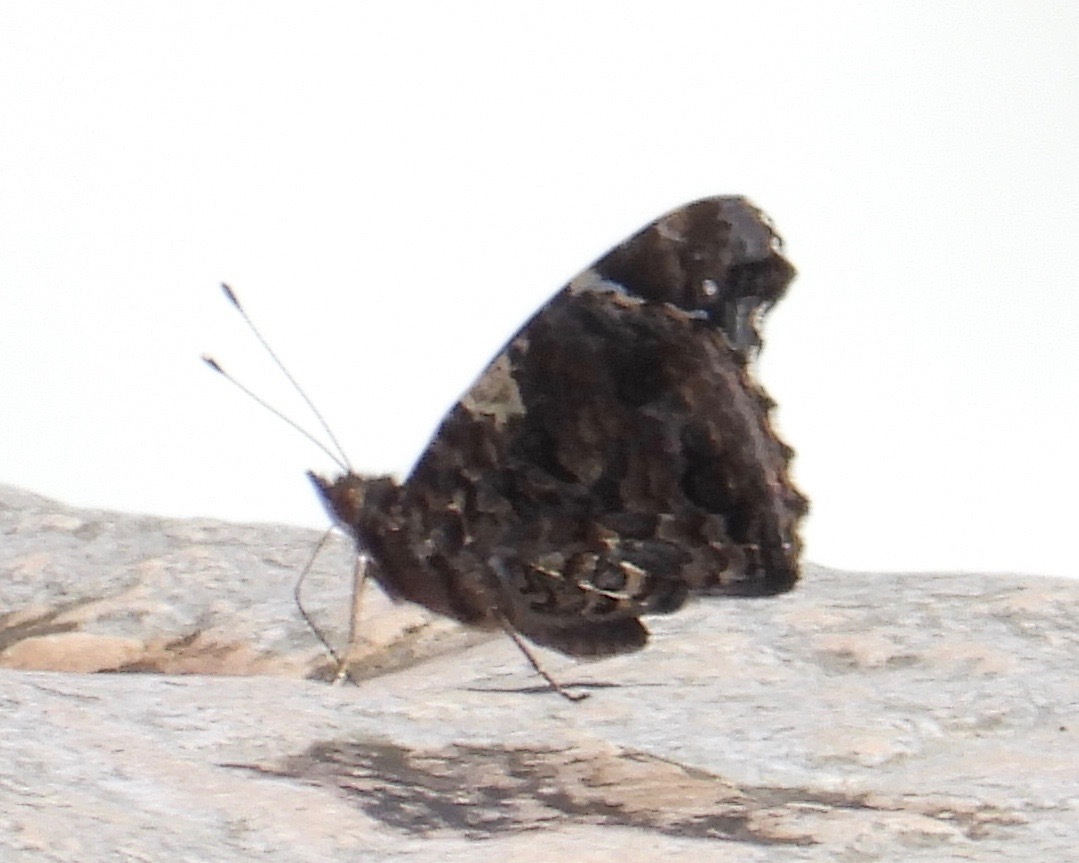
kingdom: Animalia
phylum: Arthropoda
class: Insecta
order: Lepidoptera
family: Nymphalidae
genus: Vanessa
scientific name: Vanessa atalanta
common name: Red admiral
